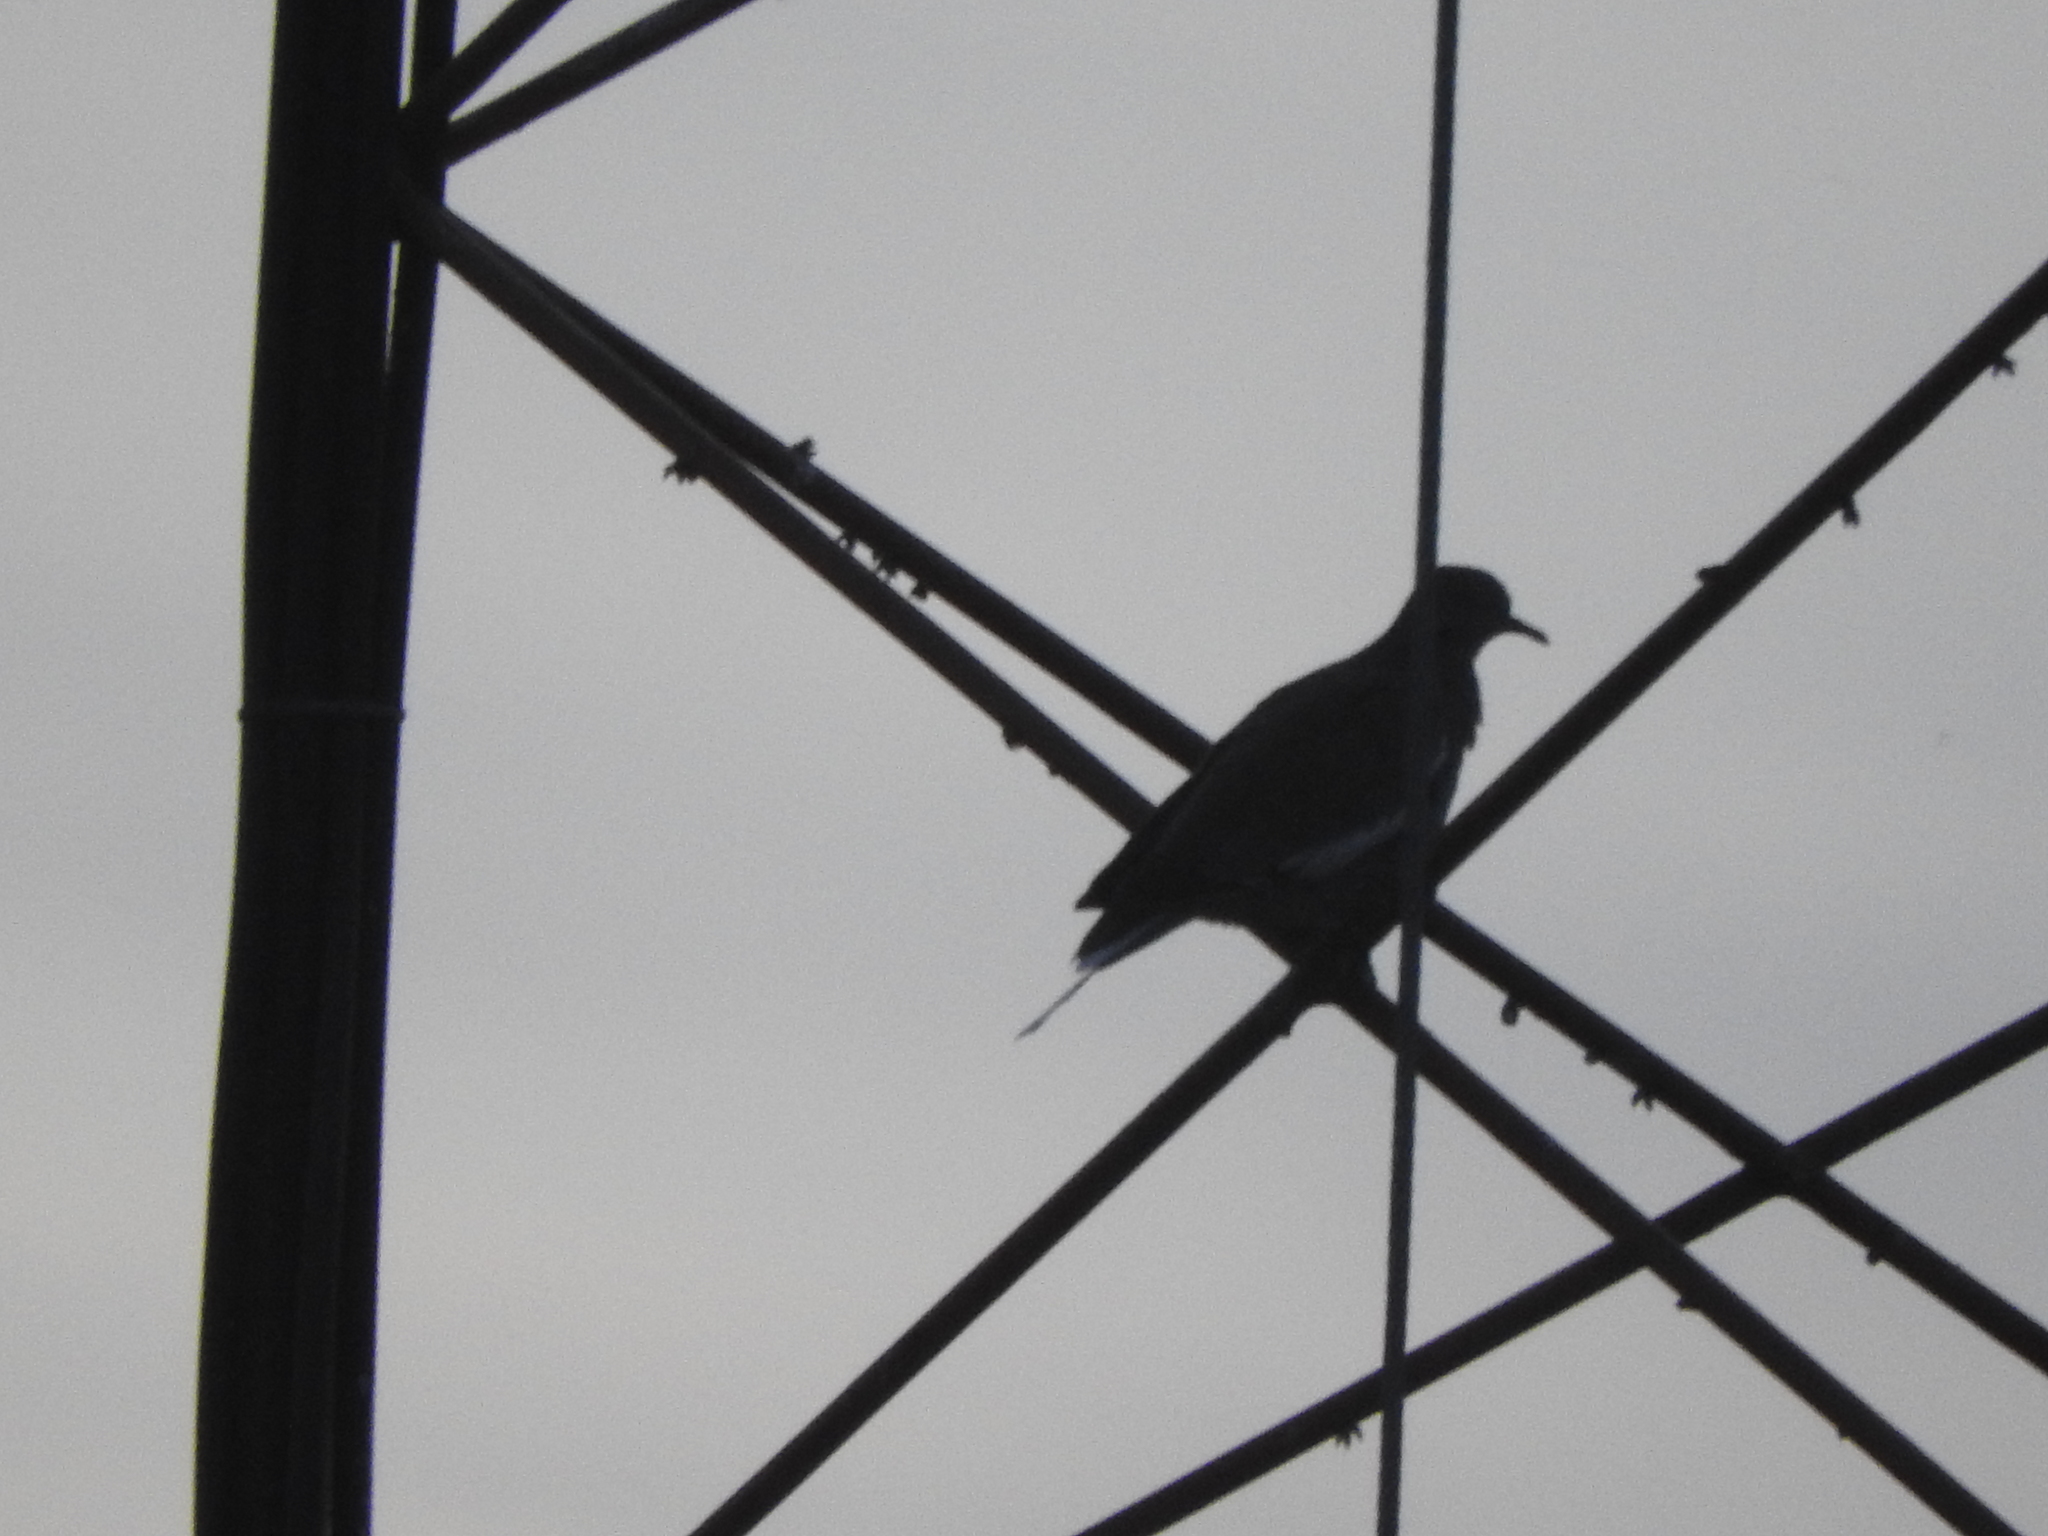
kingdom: Animalia
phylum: Chordata
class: Aves
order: Columbiformes
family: Columbidae
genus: Zenaida
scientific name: Zenaida asiatica
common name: White-winged dove
